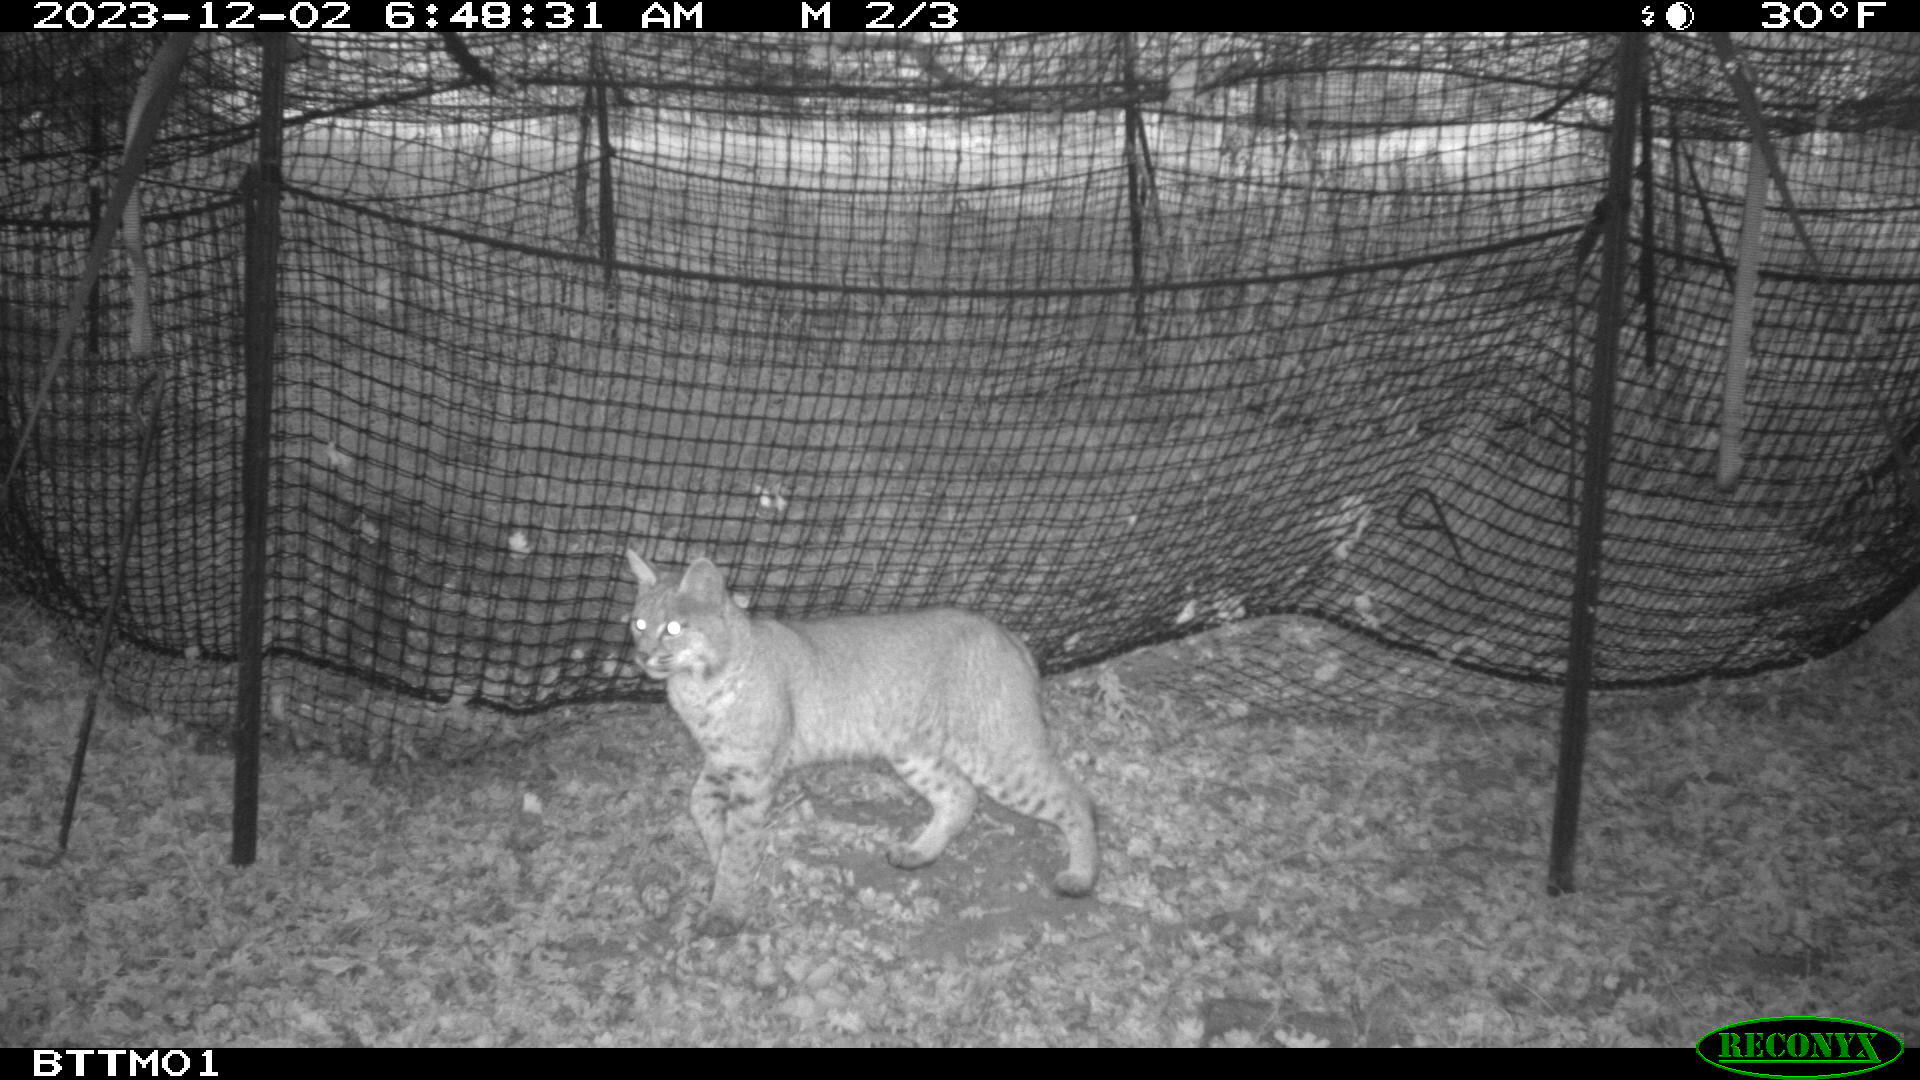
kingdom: Animalia
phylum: Chordata
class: Mammalia
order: Carnivora
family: Felidae
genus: Lynx
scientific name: Lynx rufus
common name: Bobcat
